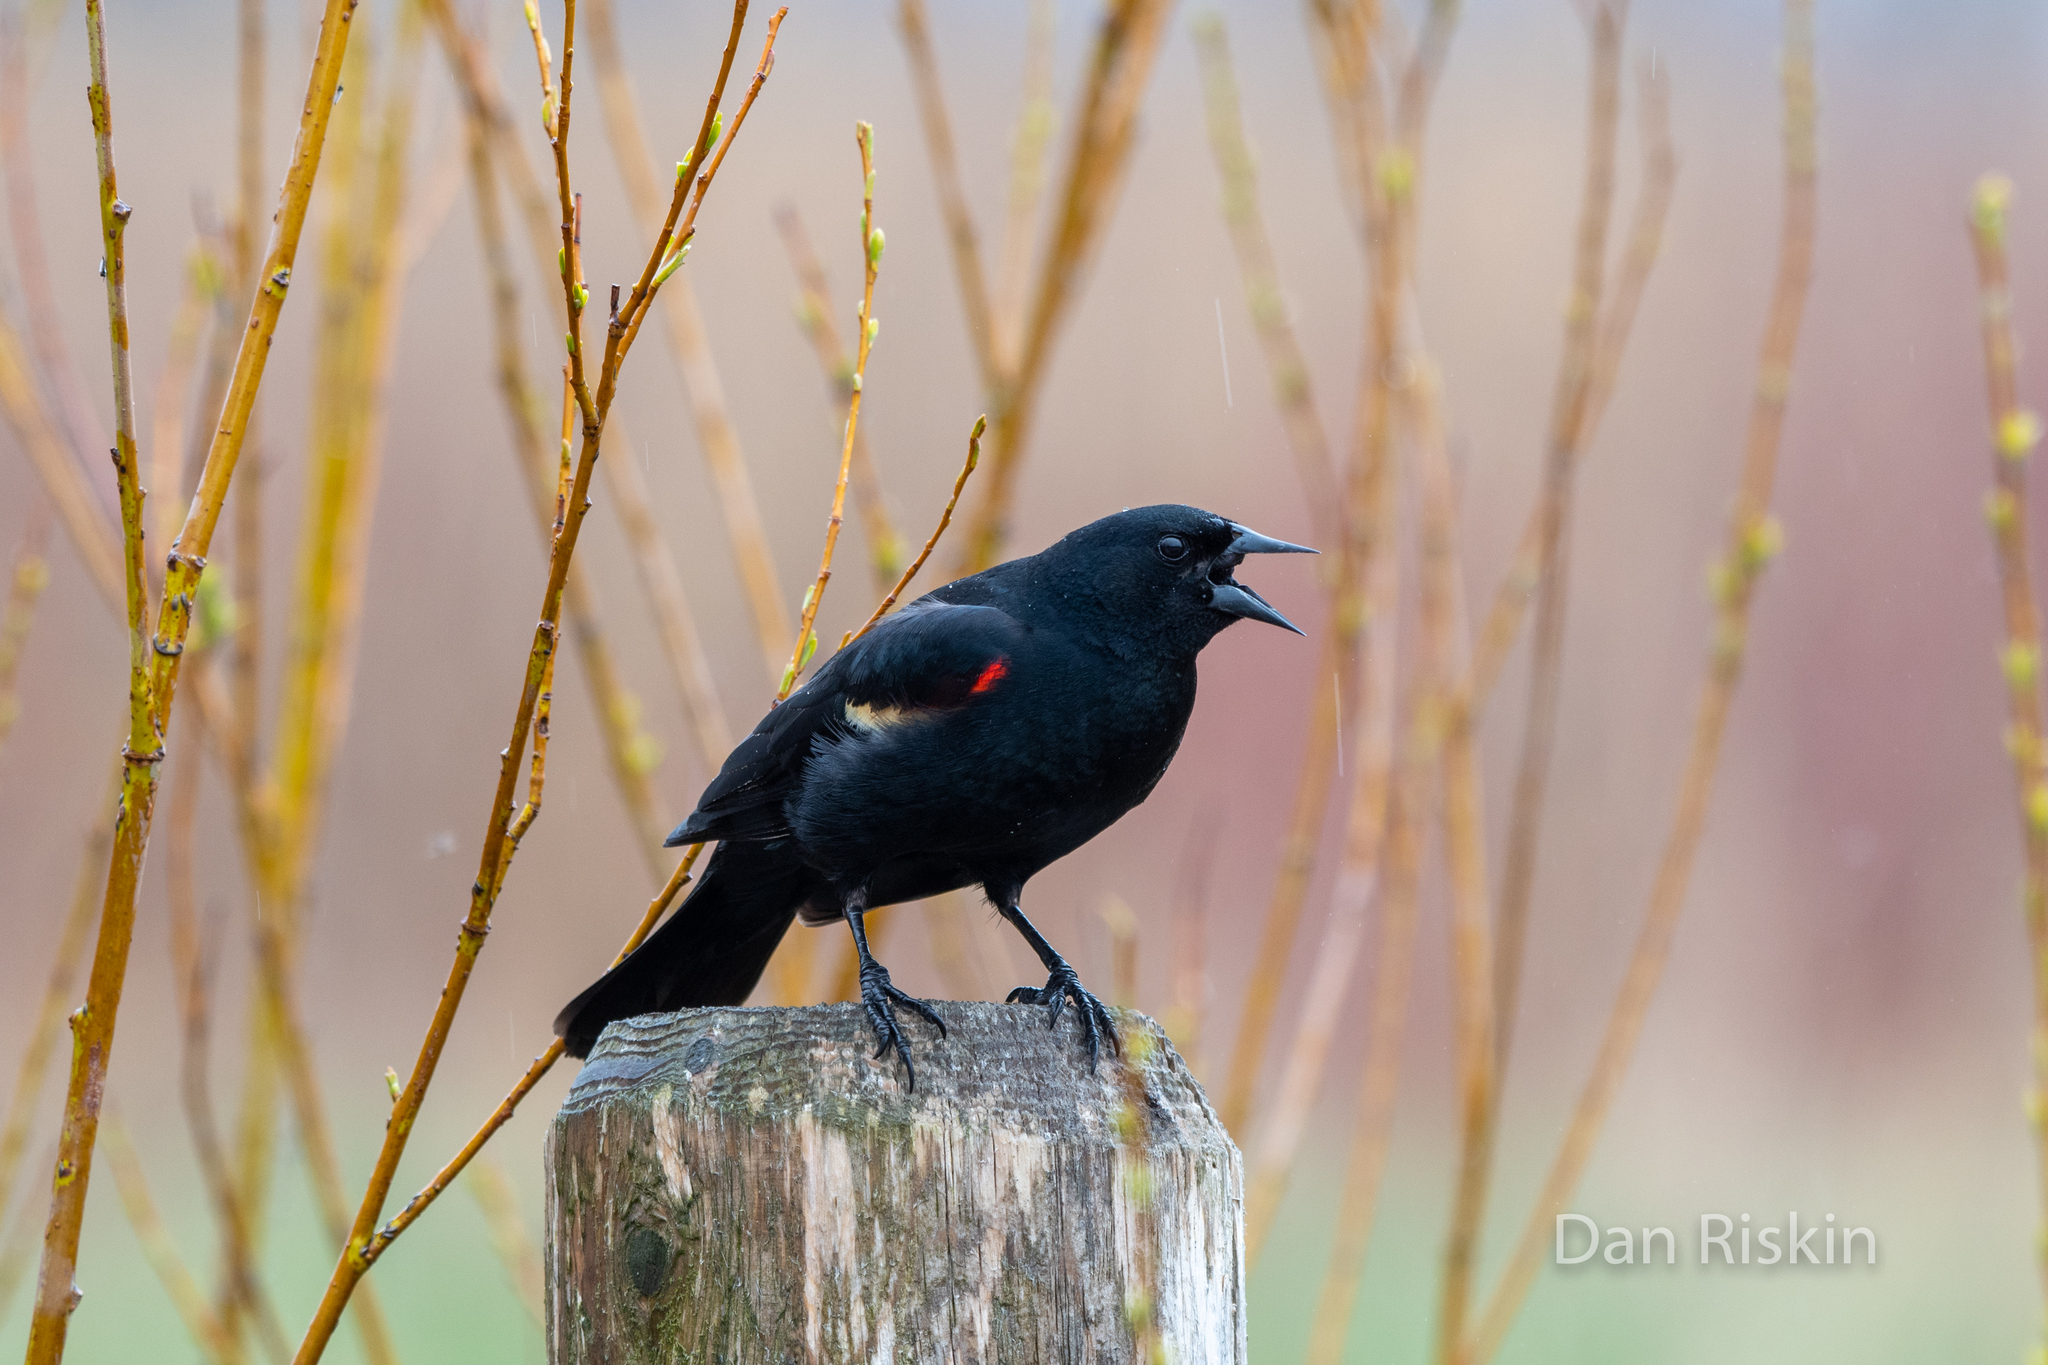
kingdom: Animalia
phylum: Chordata
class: Aves
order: Passeriformes
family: Icteridae
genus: Agelaius
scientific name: Agelaius phoeniceus
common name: Red-winged blackbird
